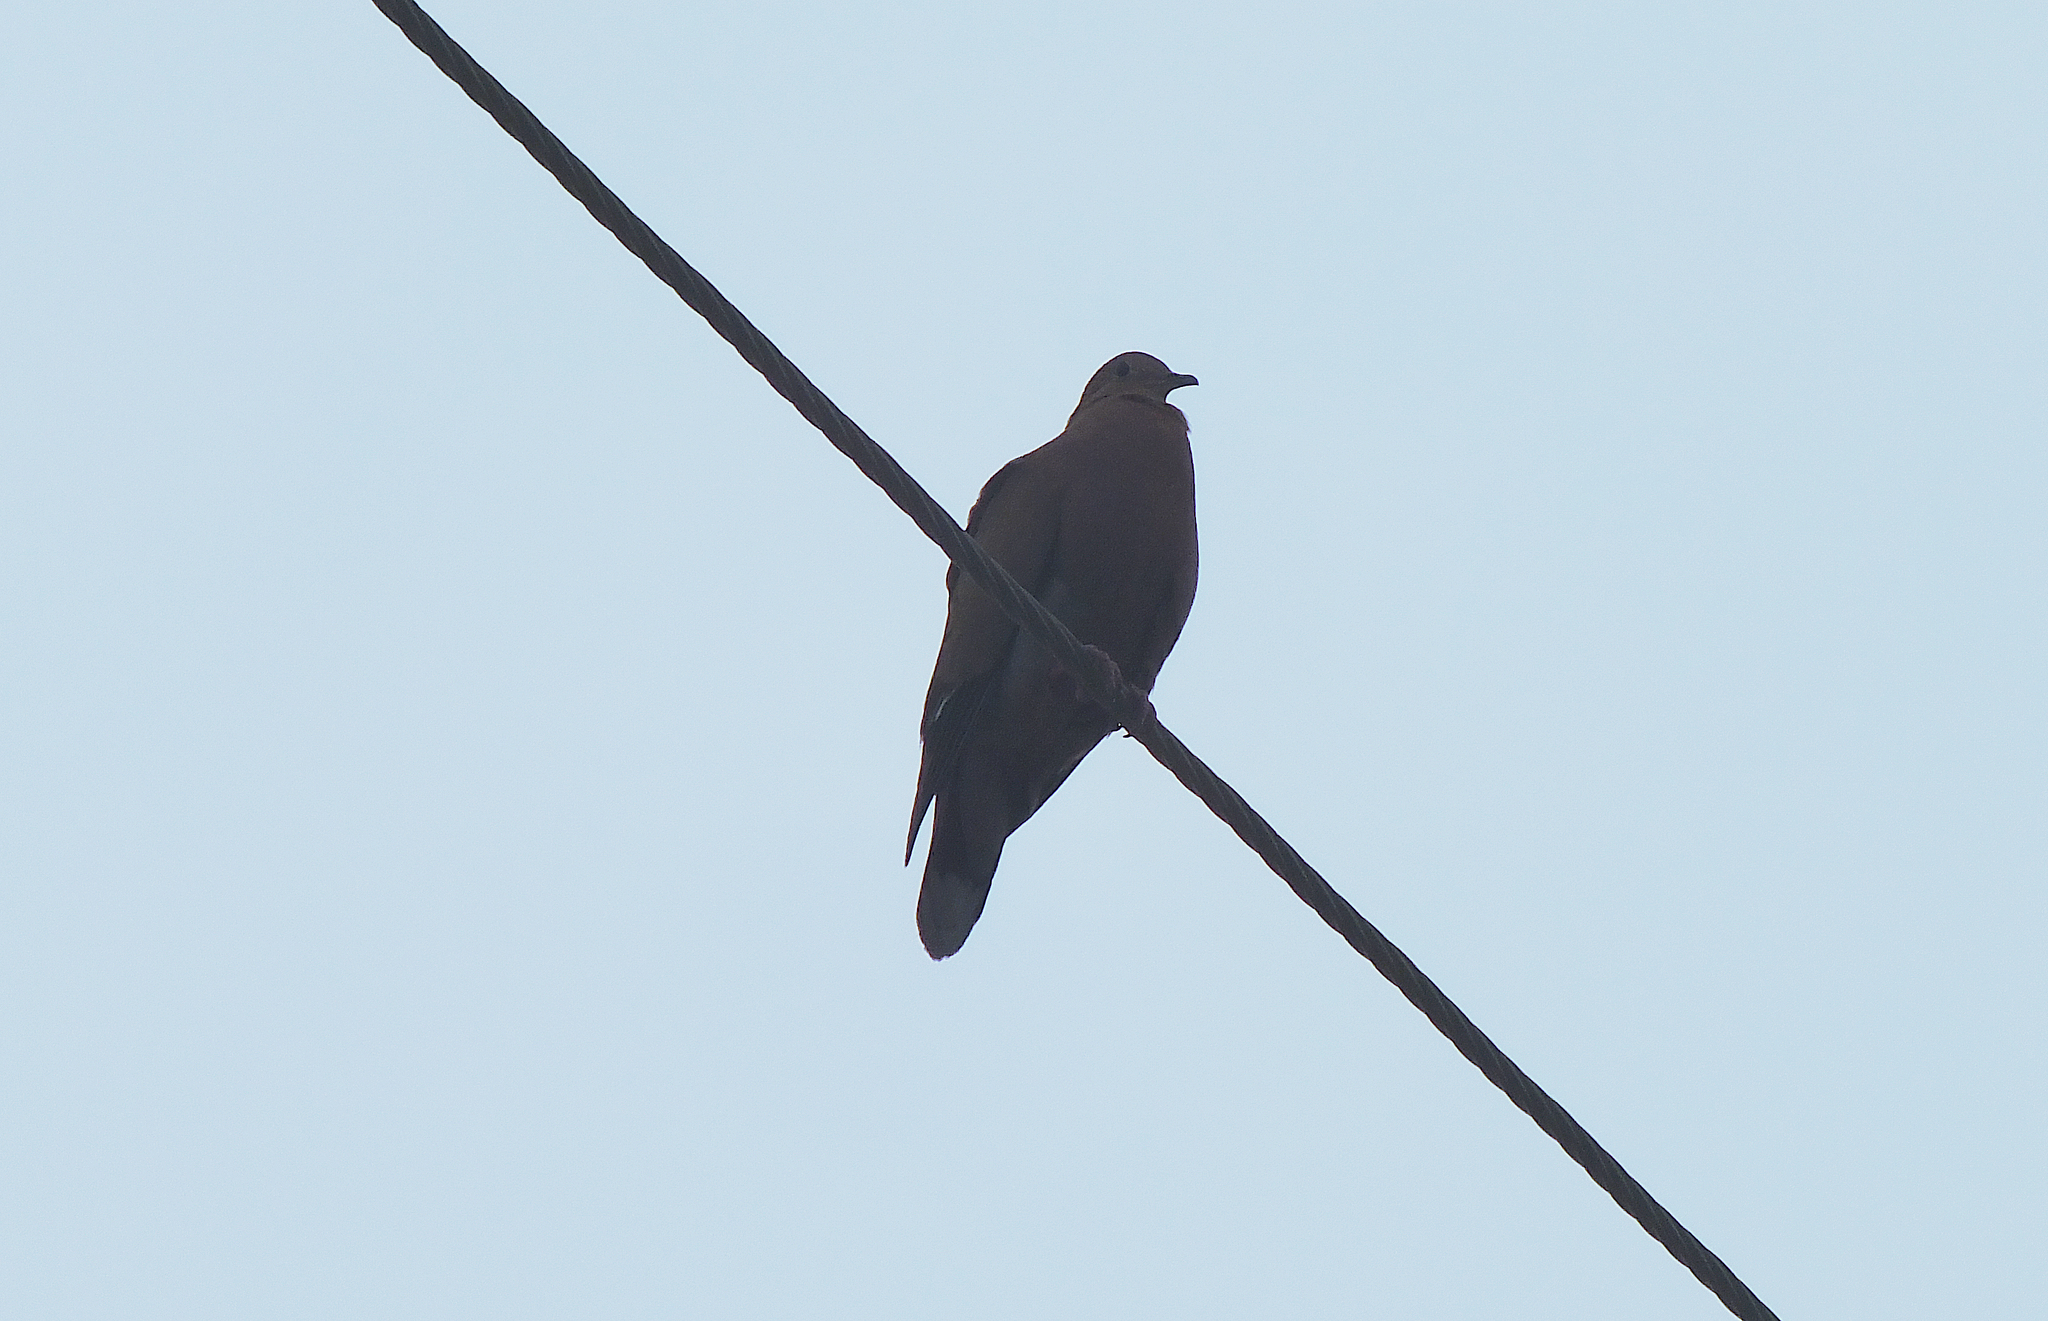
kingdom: Animalia
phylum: Chordata
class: Aves
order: Columbiformes
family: Columbidae
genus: Zenaida
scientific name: Zenaida aurita
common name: Zenaida dove
